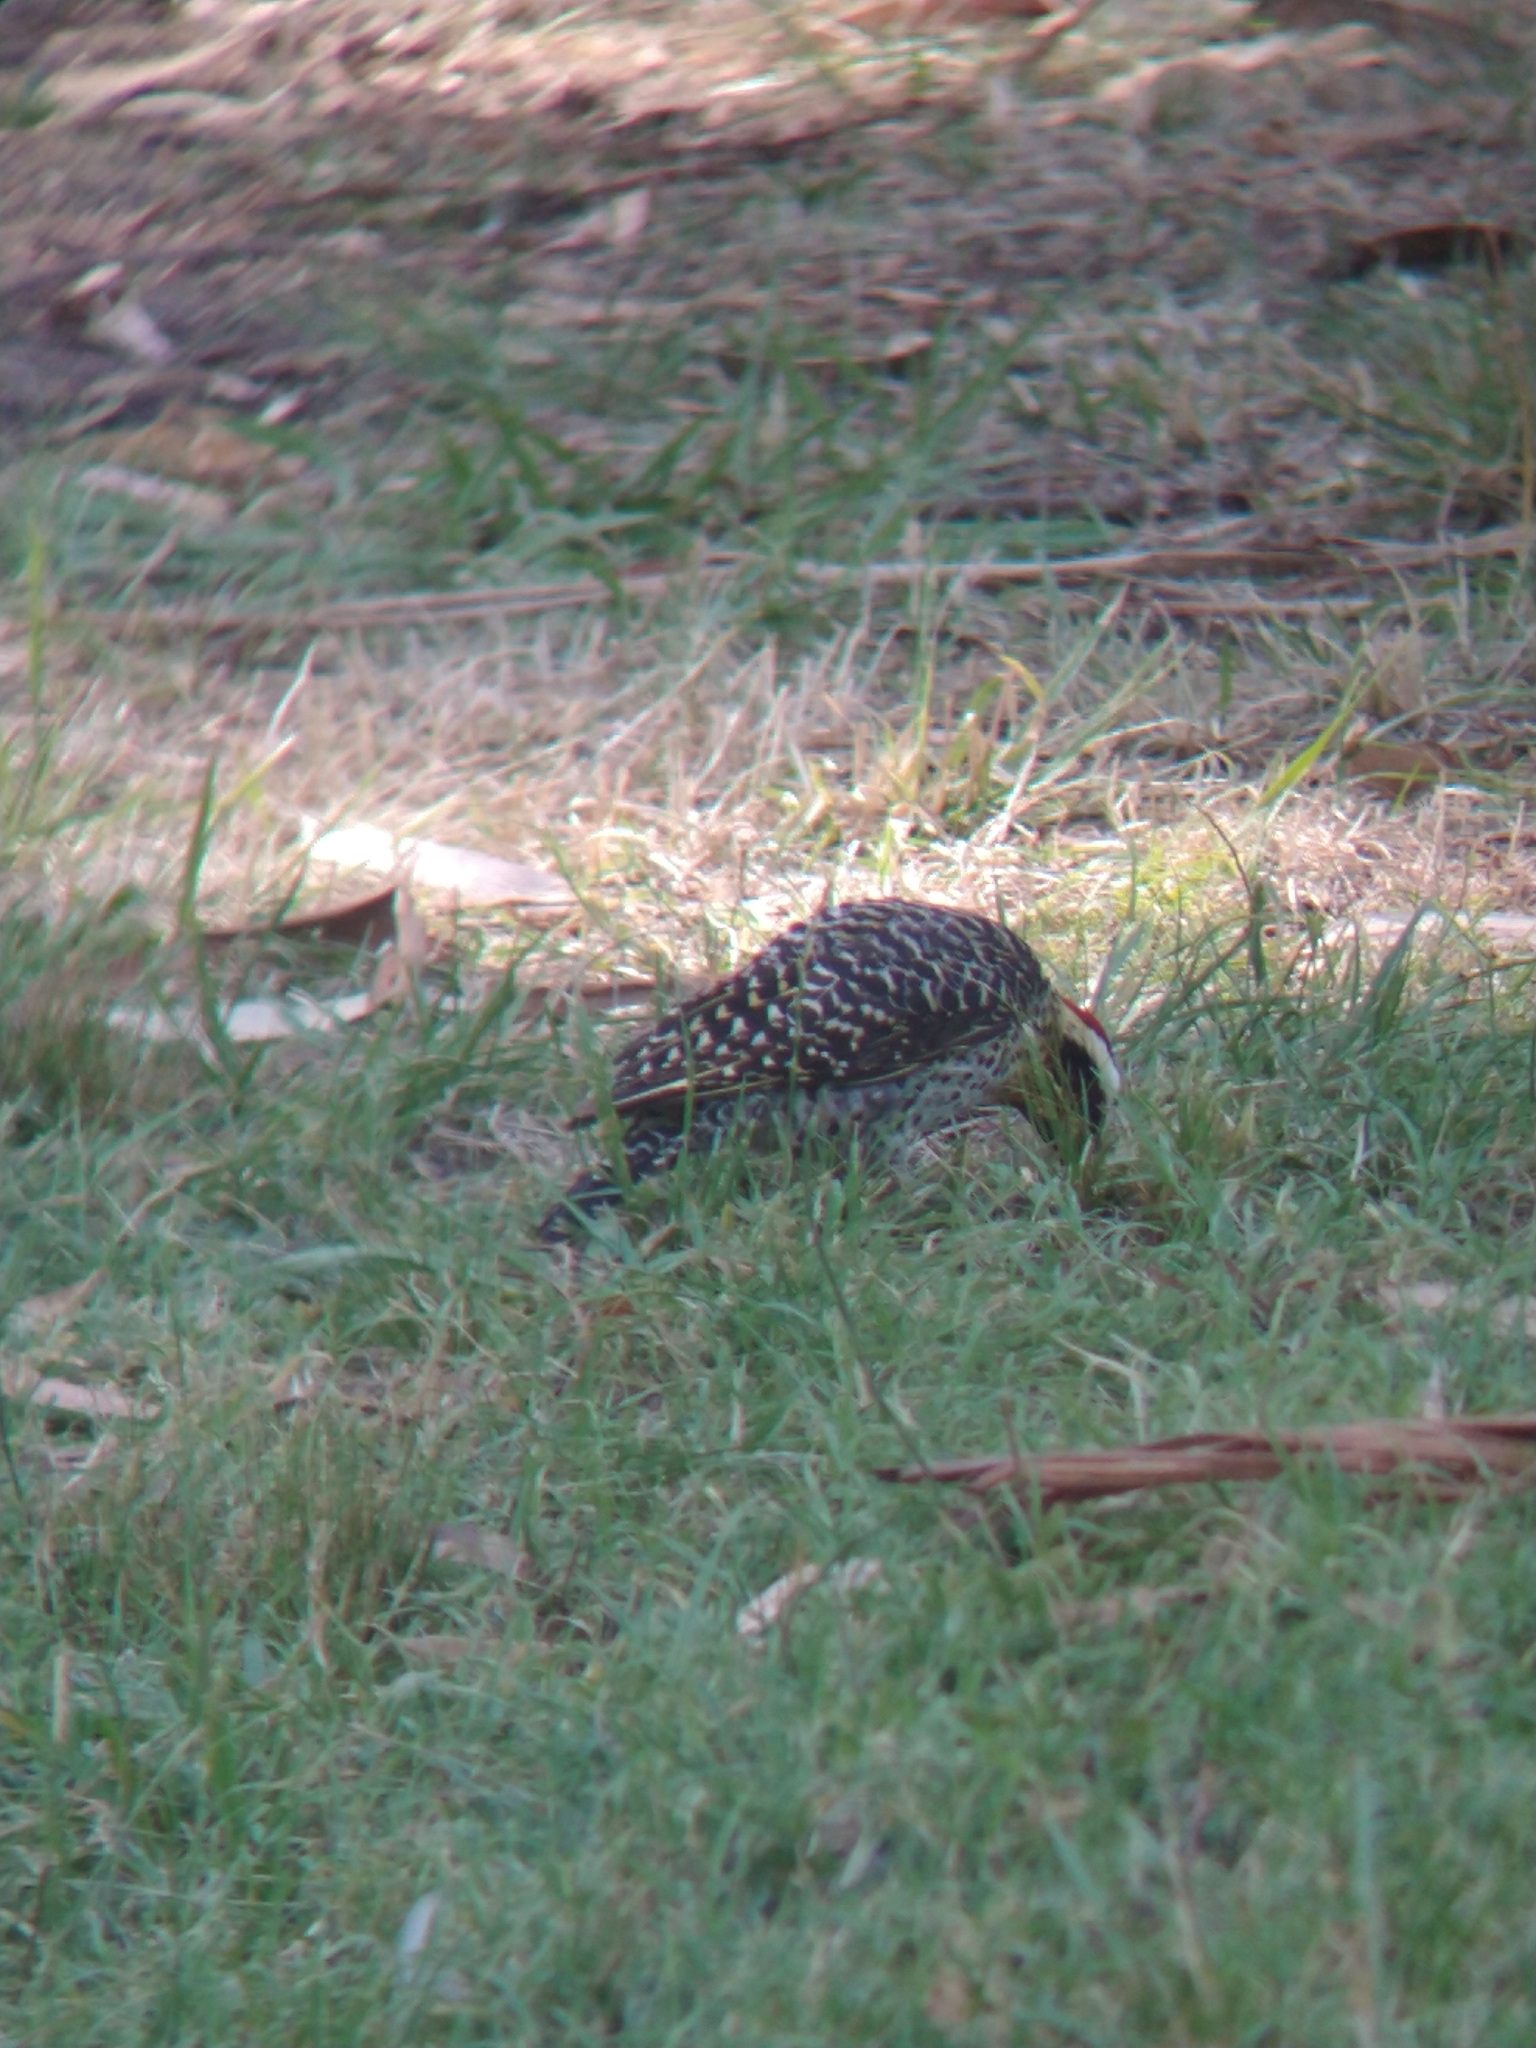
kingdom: Animalia
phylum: Chordata
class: Aves
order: Piciformes
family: Picidae
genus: Colaptes
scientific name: Colaptes melanochloros
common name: Green-barred woodpecker
